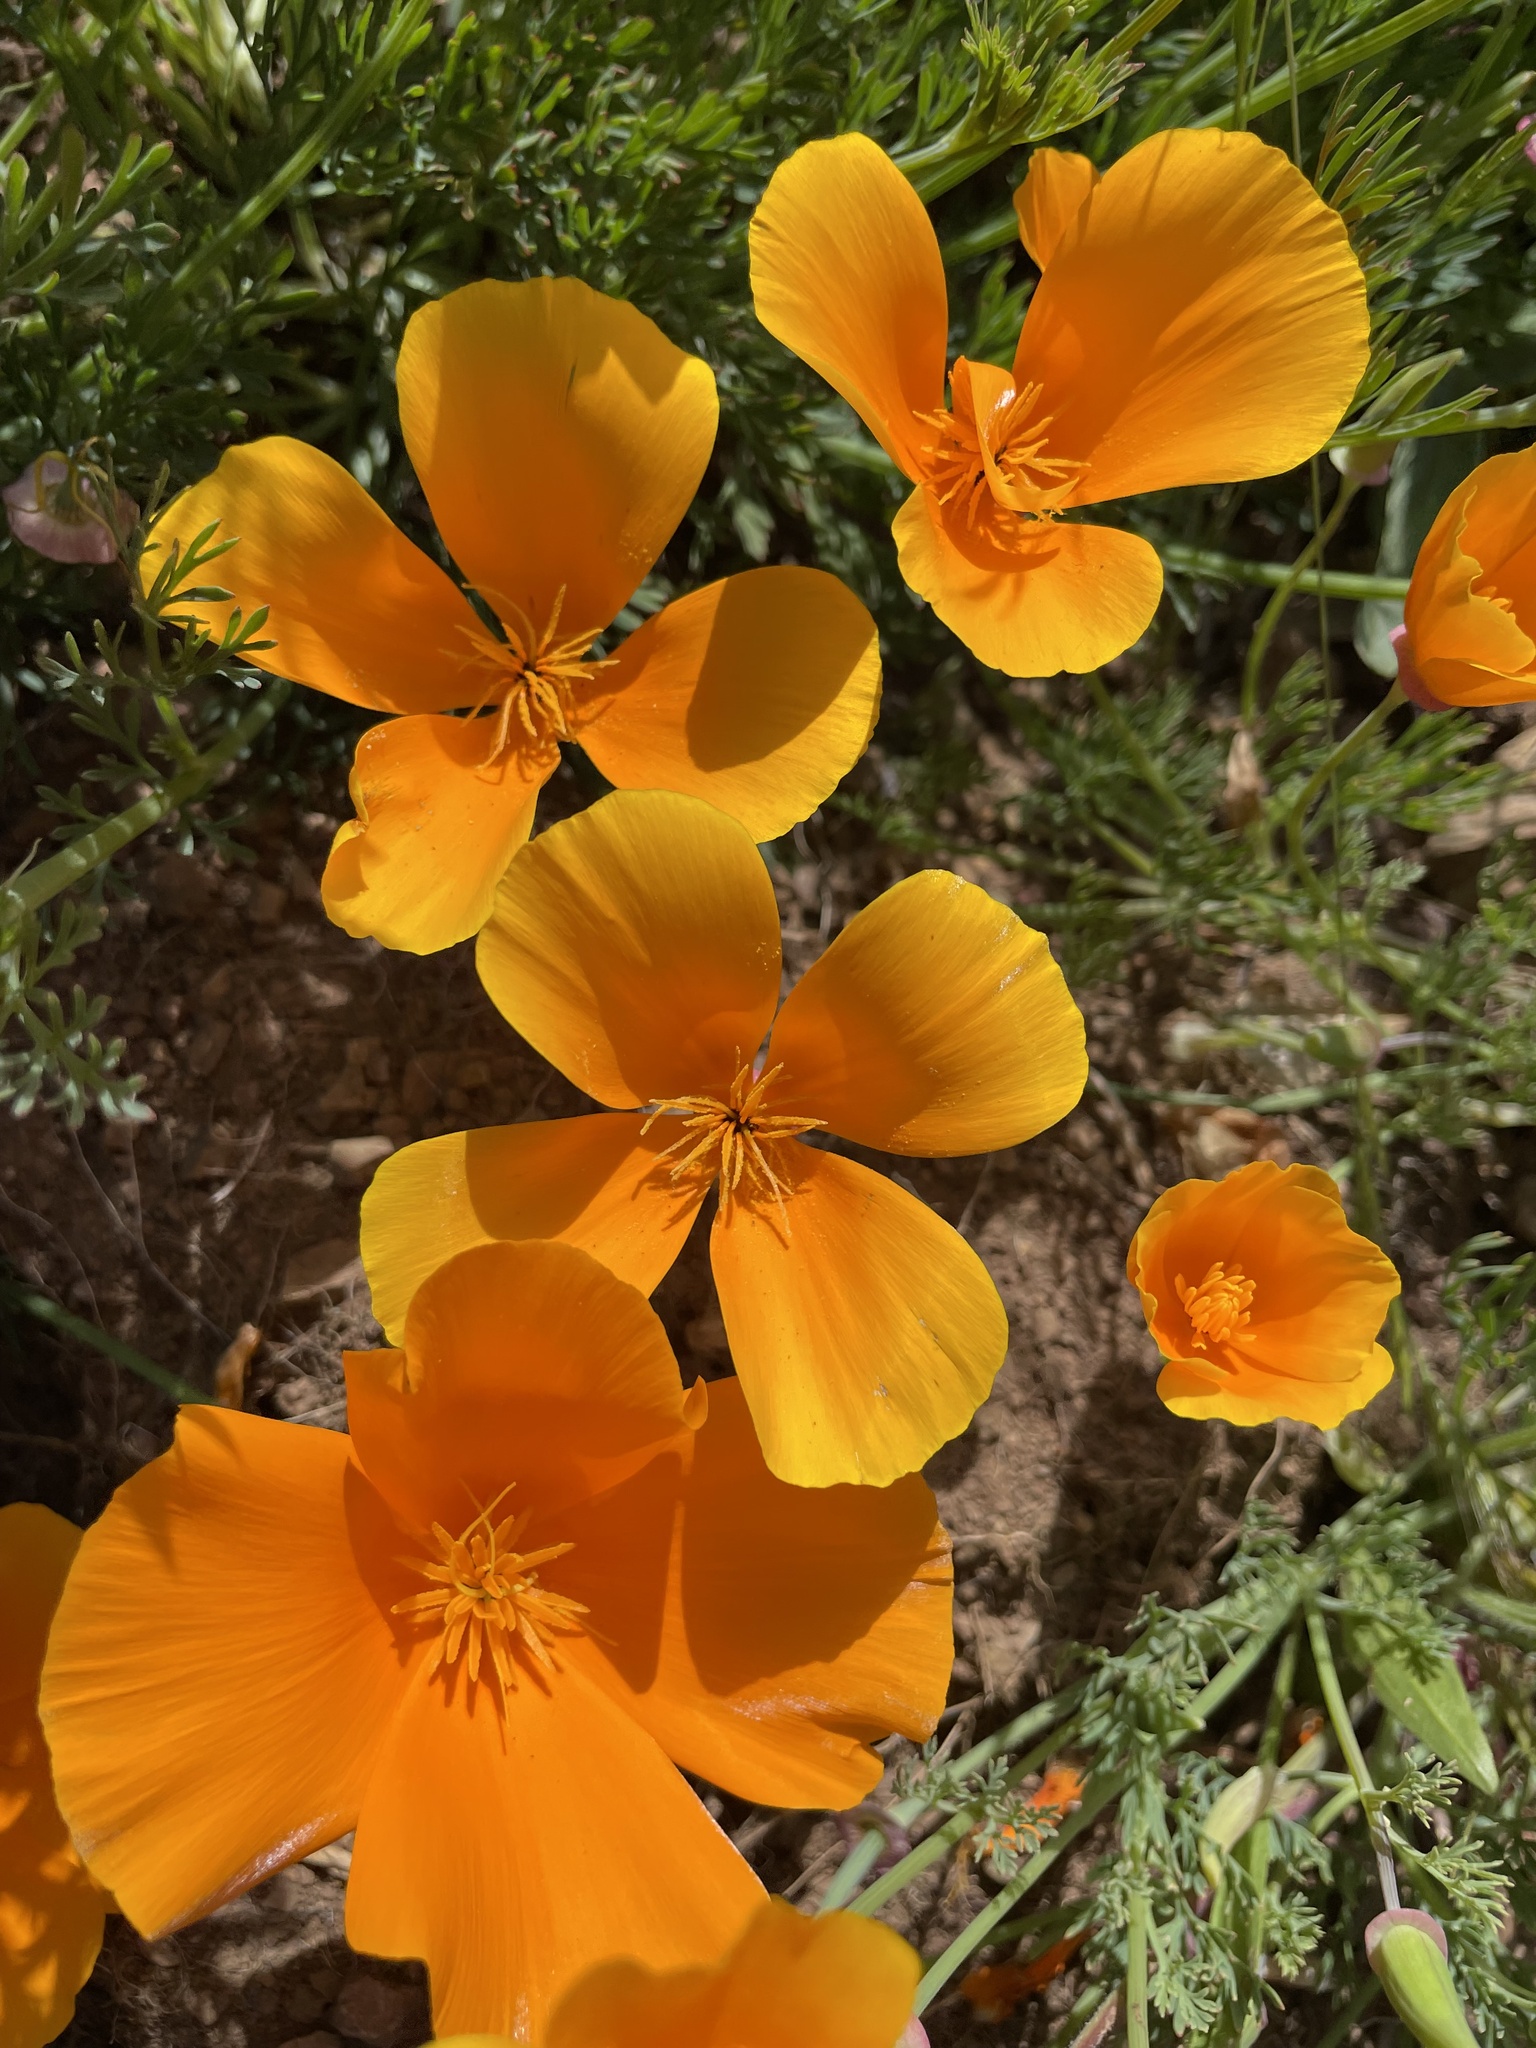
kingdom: Plantae
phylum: Tracheophyta
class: Magnoliopsida
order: Ranunculales
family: Papaveraceae
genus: Eschscholzia
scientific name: Eschscholzia californica
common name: California poppy
